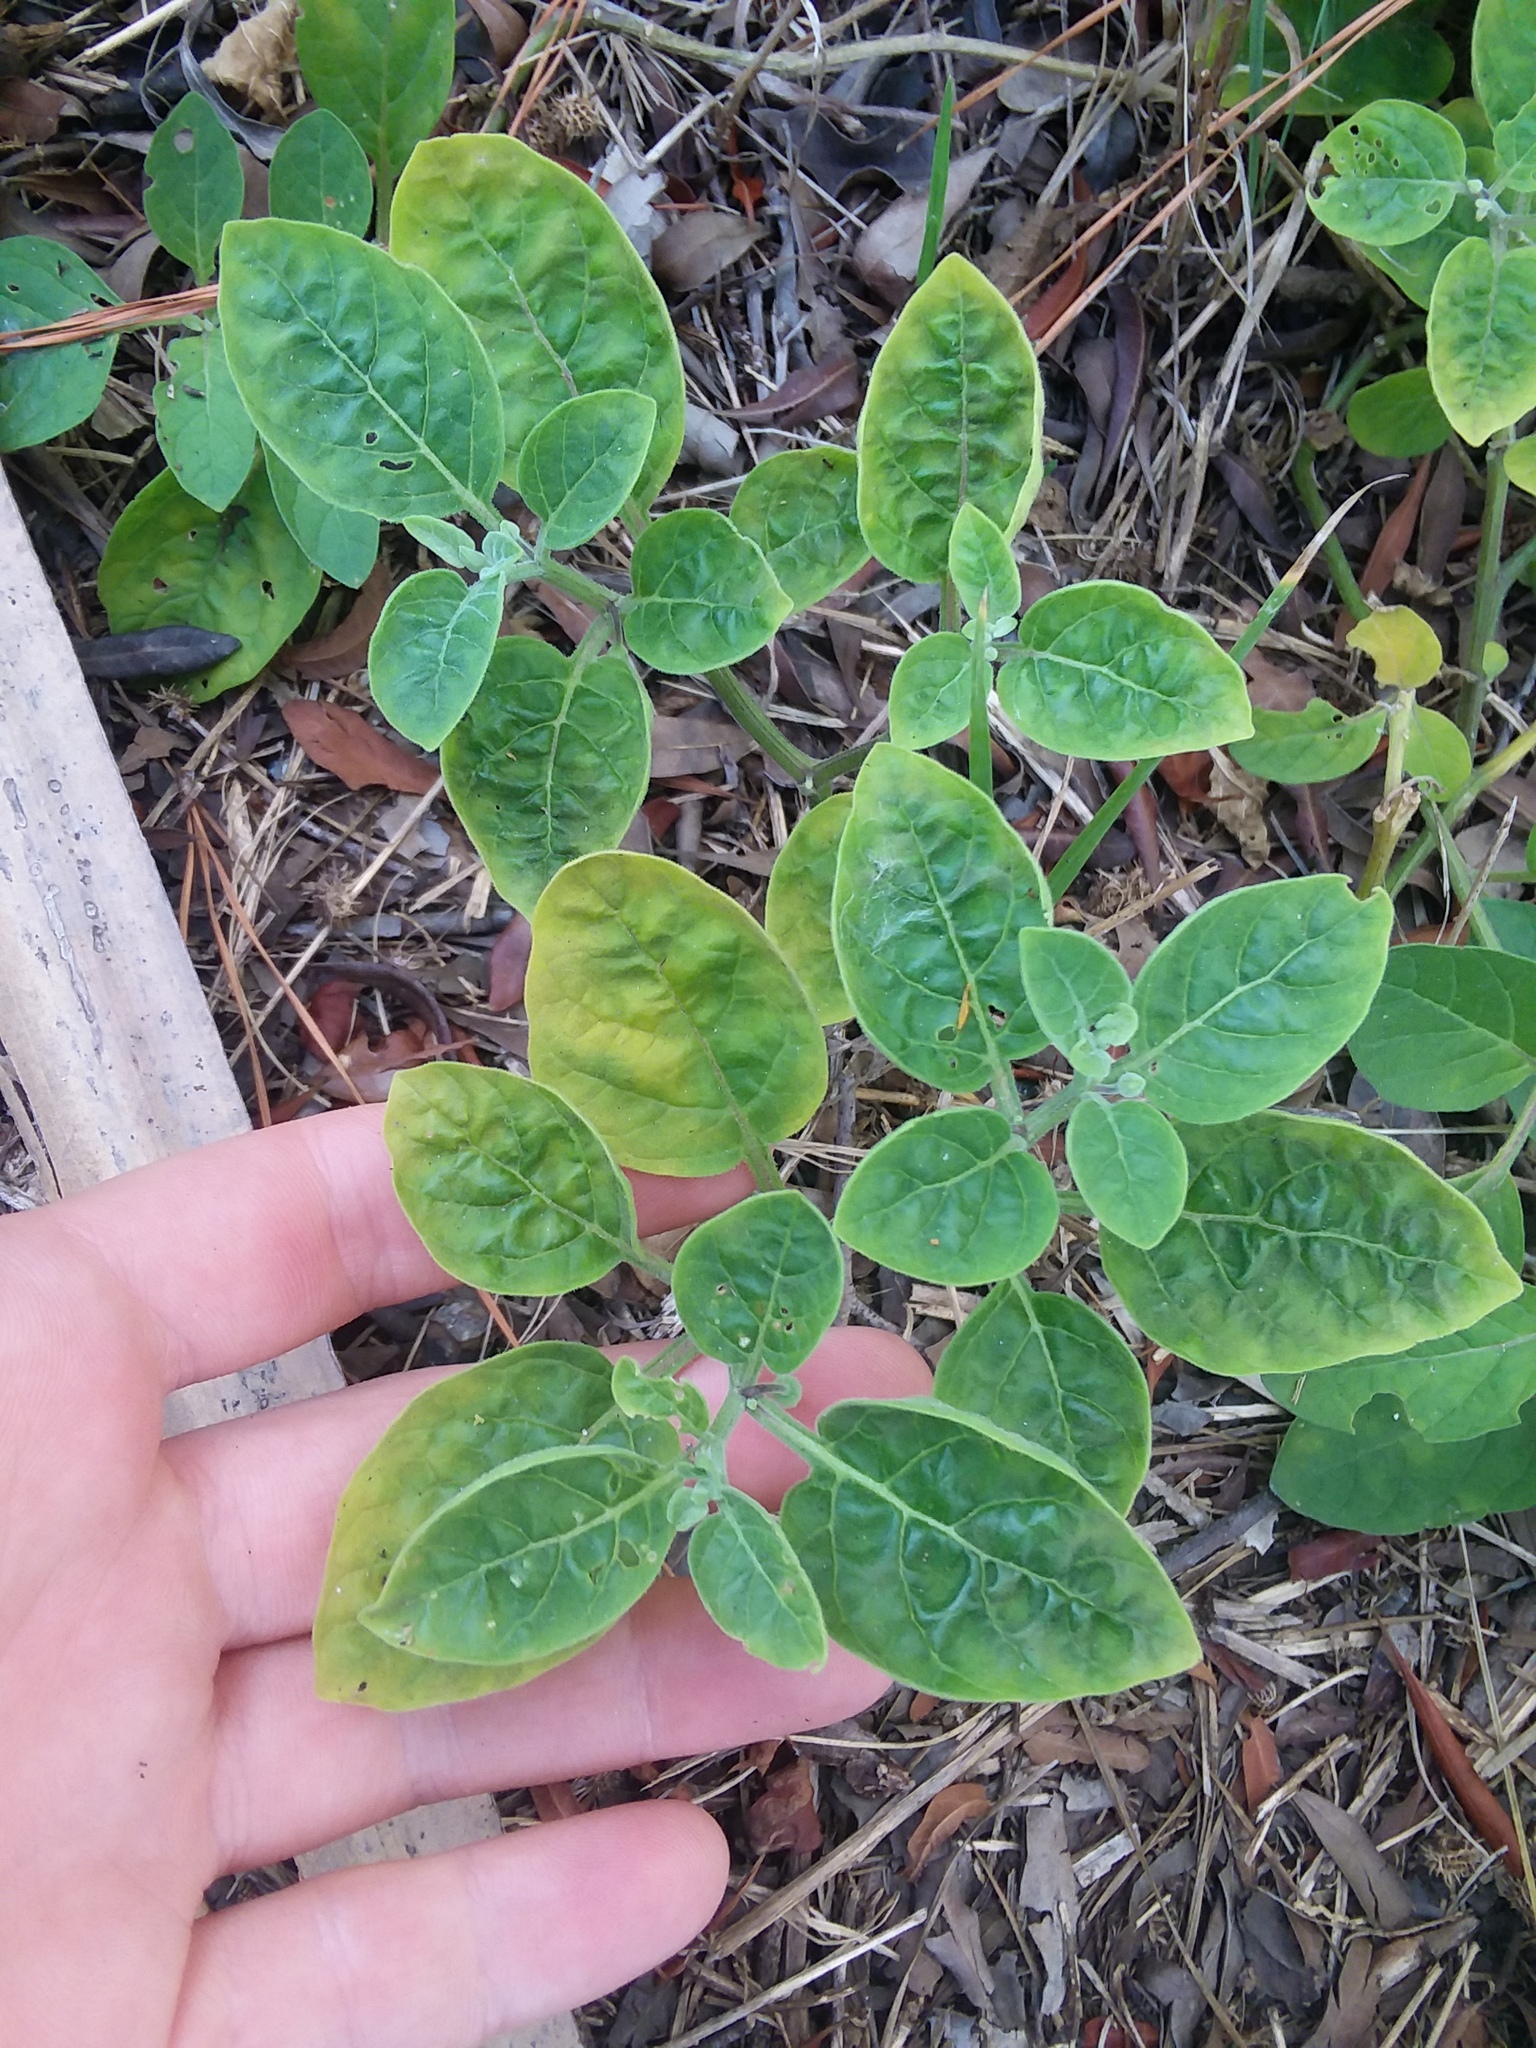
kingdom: Plantae
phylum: Tracheophyta
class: Magnoliopsida
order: Solanales
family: Solanaceae
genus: Physalis
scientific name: Physalis walteri
